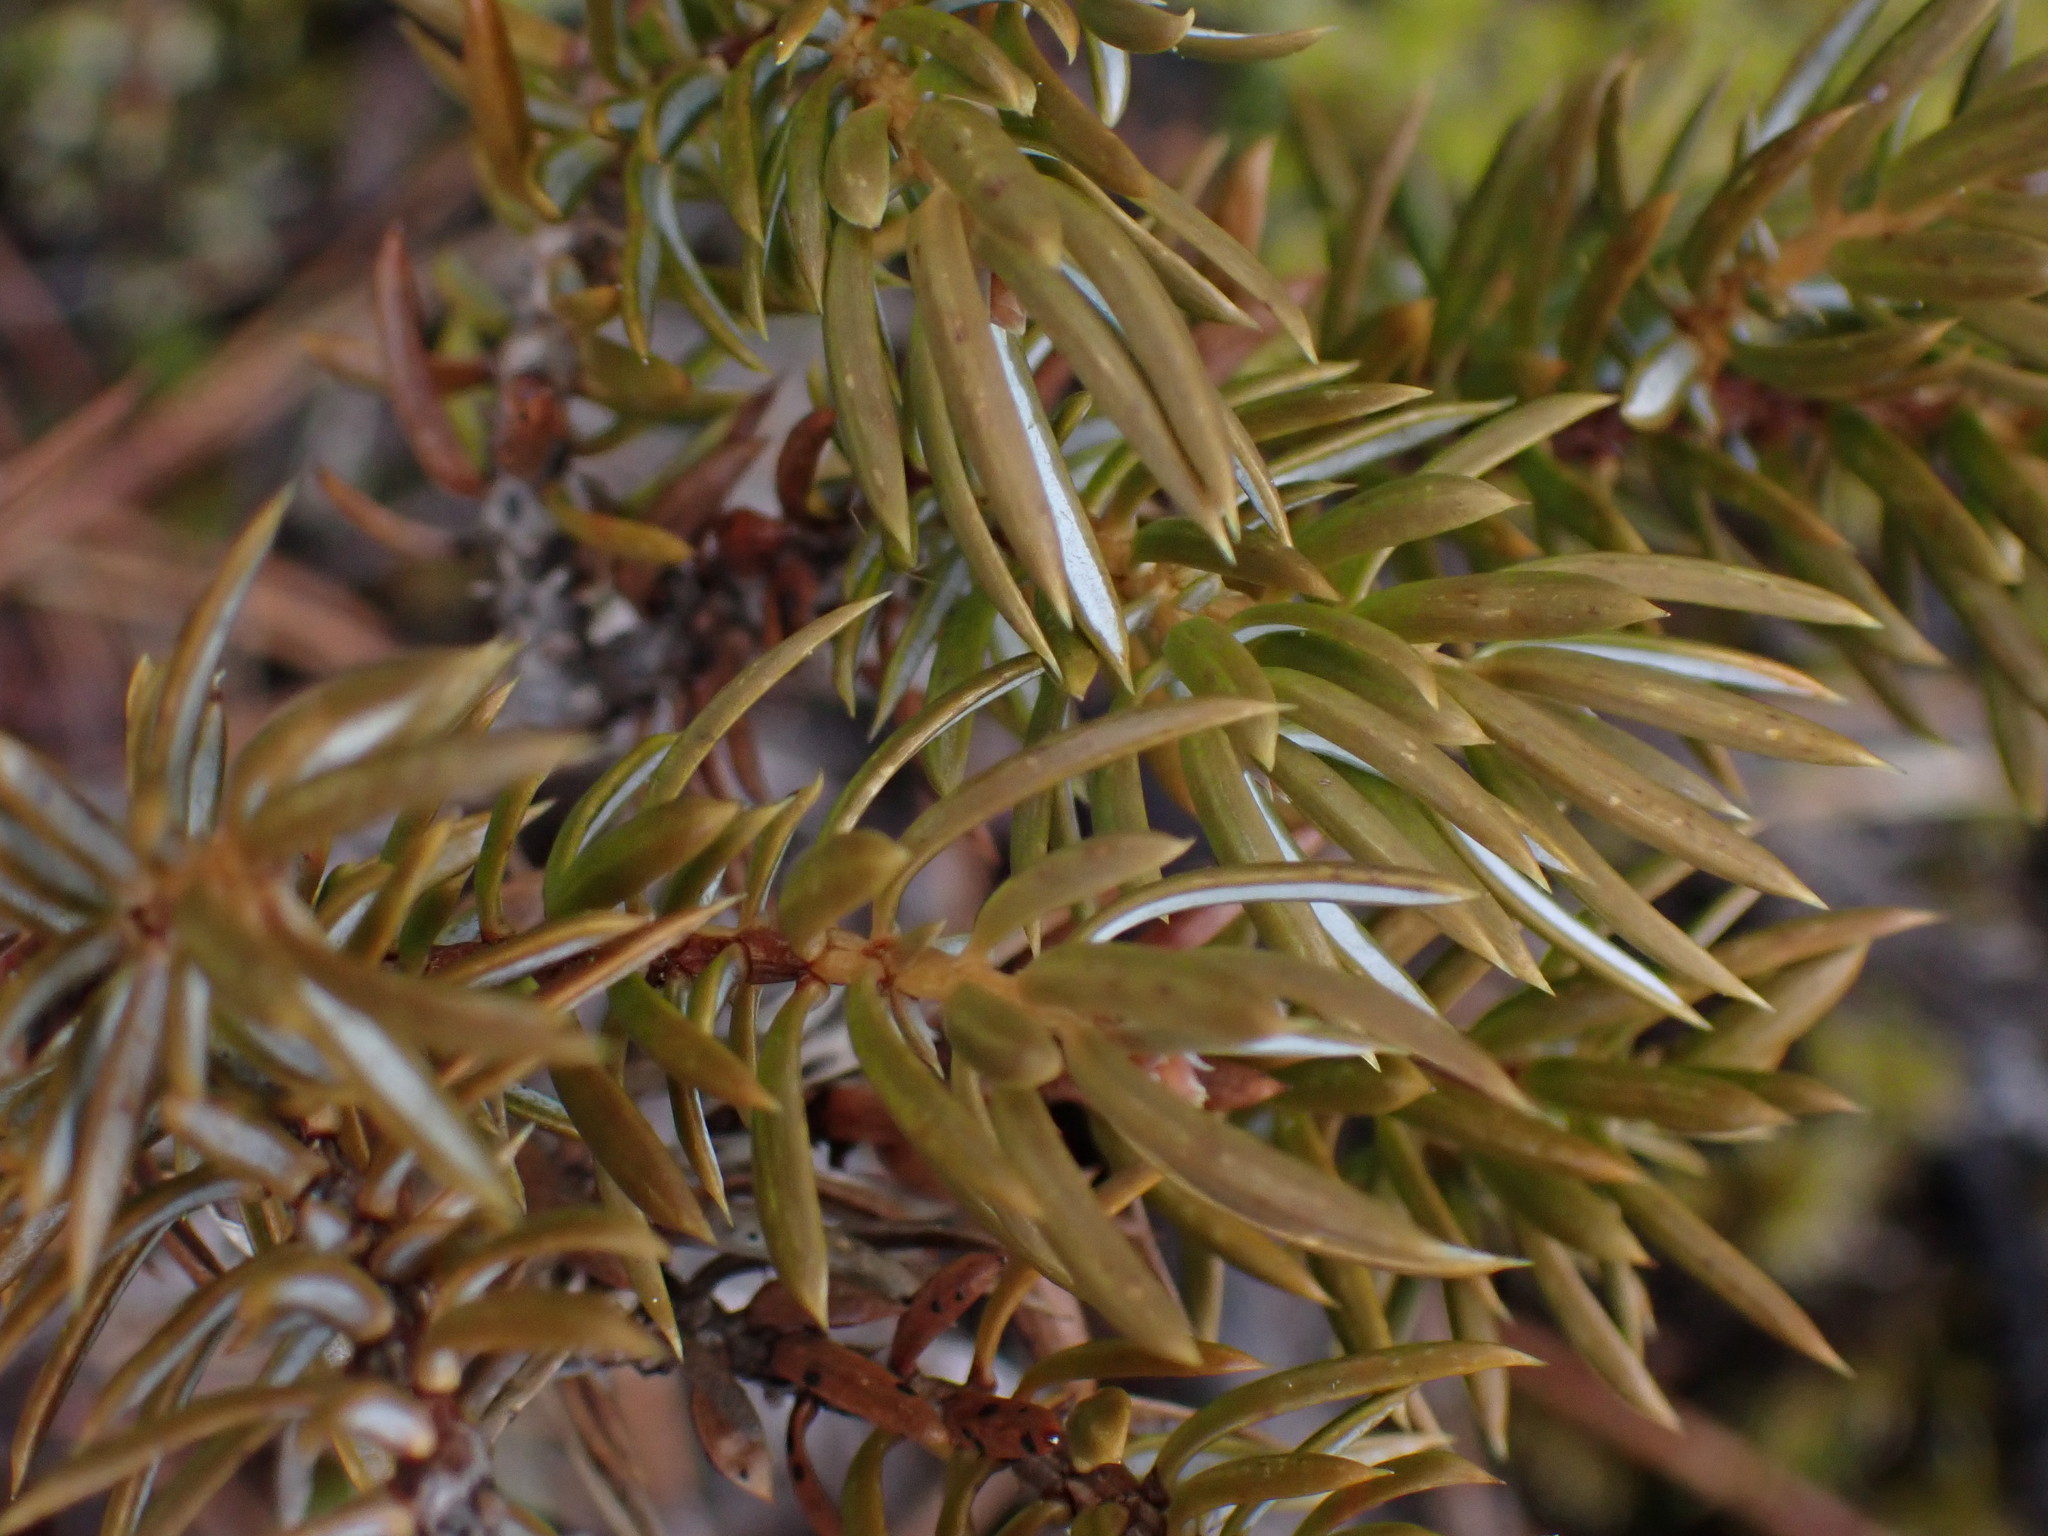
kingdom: Plantae
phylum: Tracheophyta
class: Pinopsida
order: Pinales
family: Cupressaceae
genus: Juniperus
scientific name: Juniperus communis
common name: Common juniper
